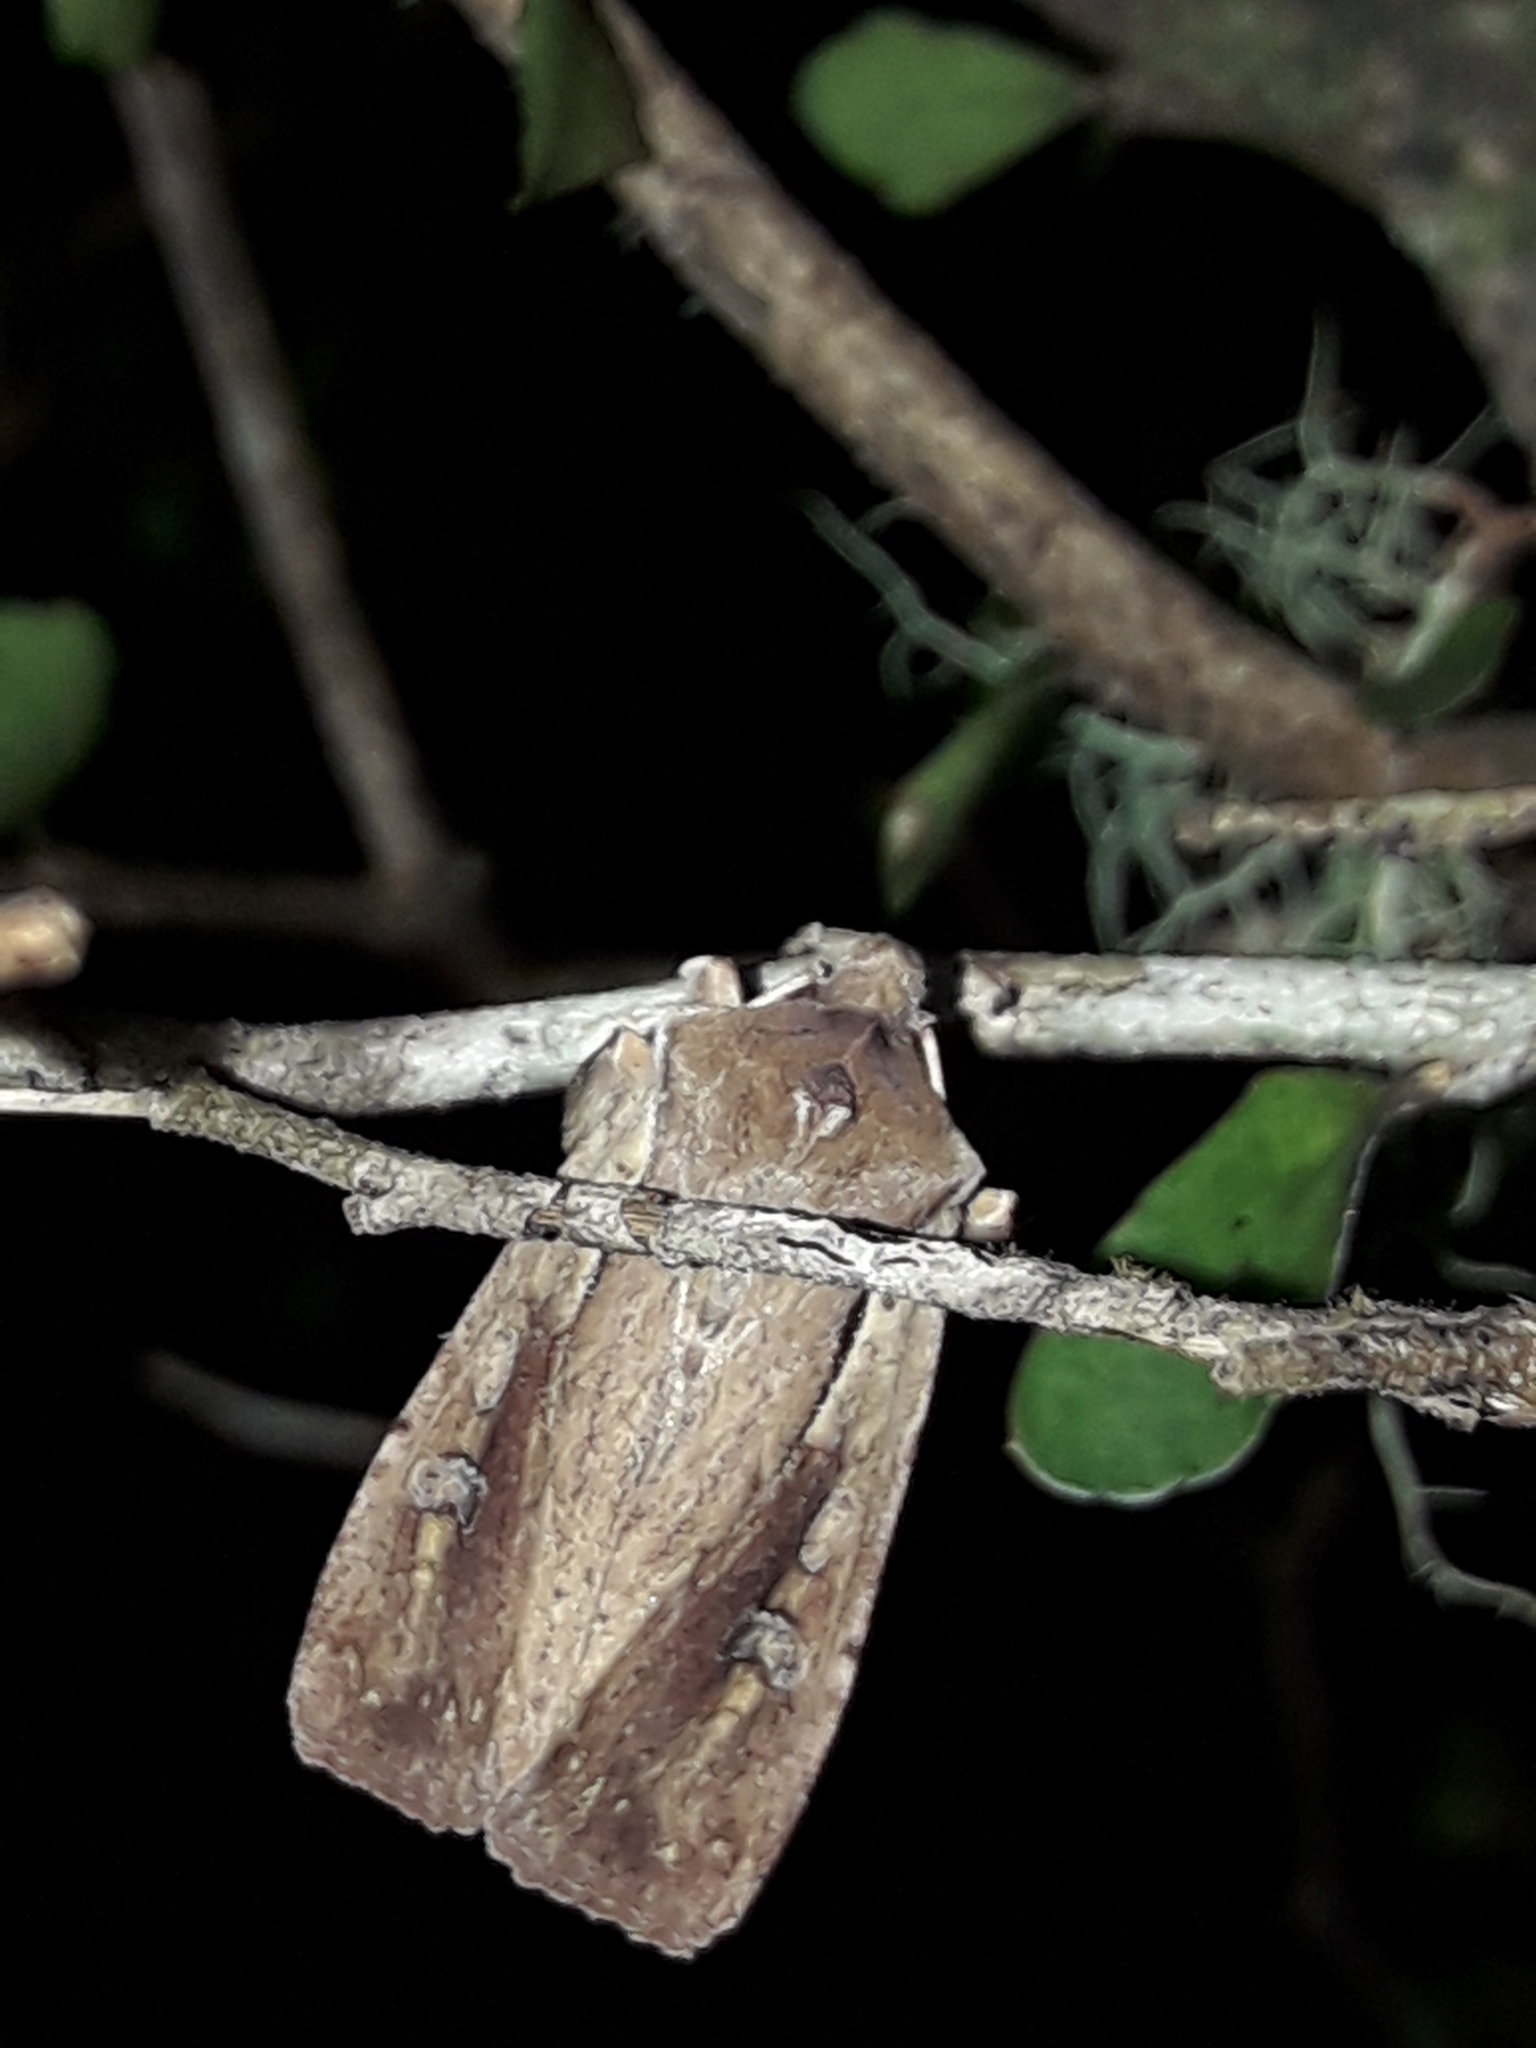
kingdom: Animalia
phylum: Arthropoda
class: Insecta
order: Lepidoptera
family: Noctuidae
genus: Ichneutica
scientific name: Ichneutica atristriga
